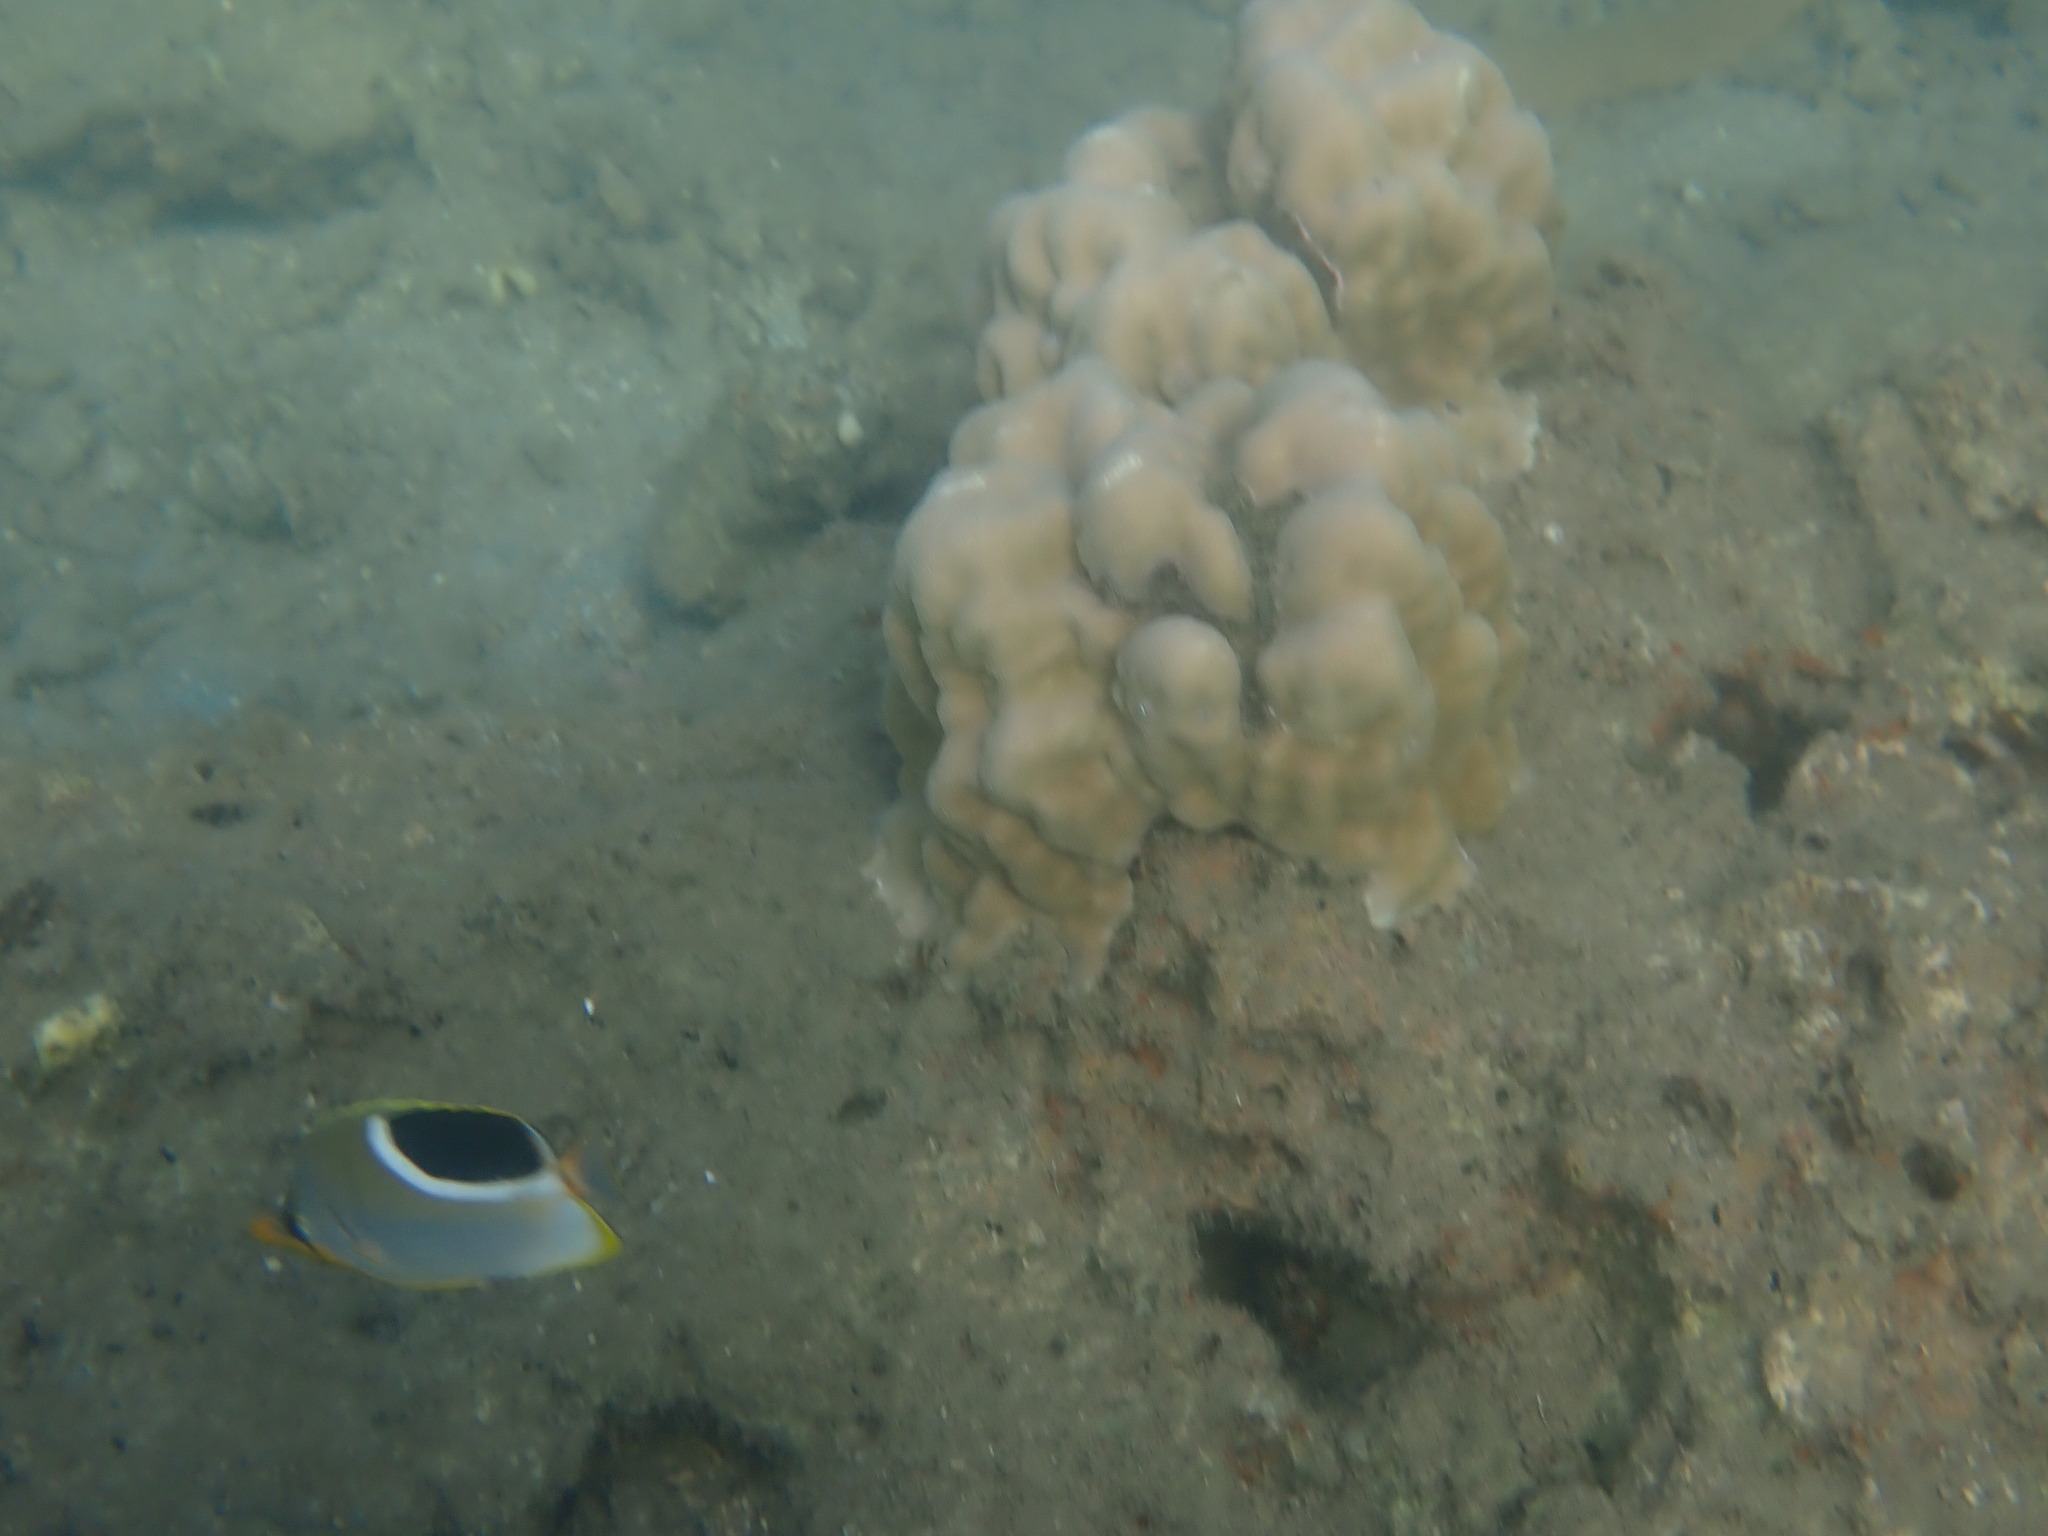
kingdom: Animalia
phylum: Chordata
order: Perciformes
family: Chaetodontidae
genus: Chaetodon
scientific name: Chaetodon ephippium
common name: Saddled butterflyfish
